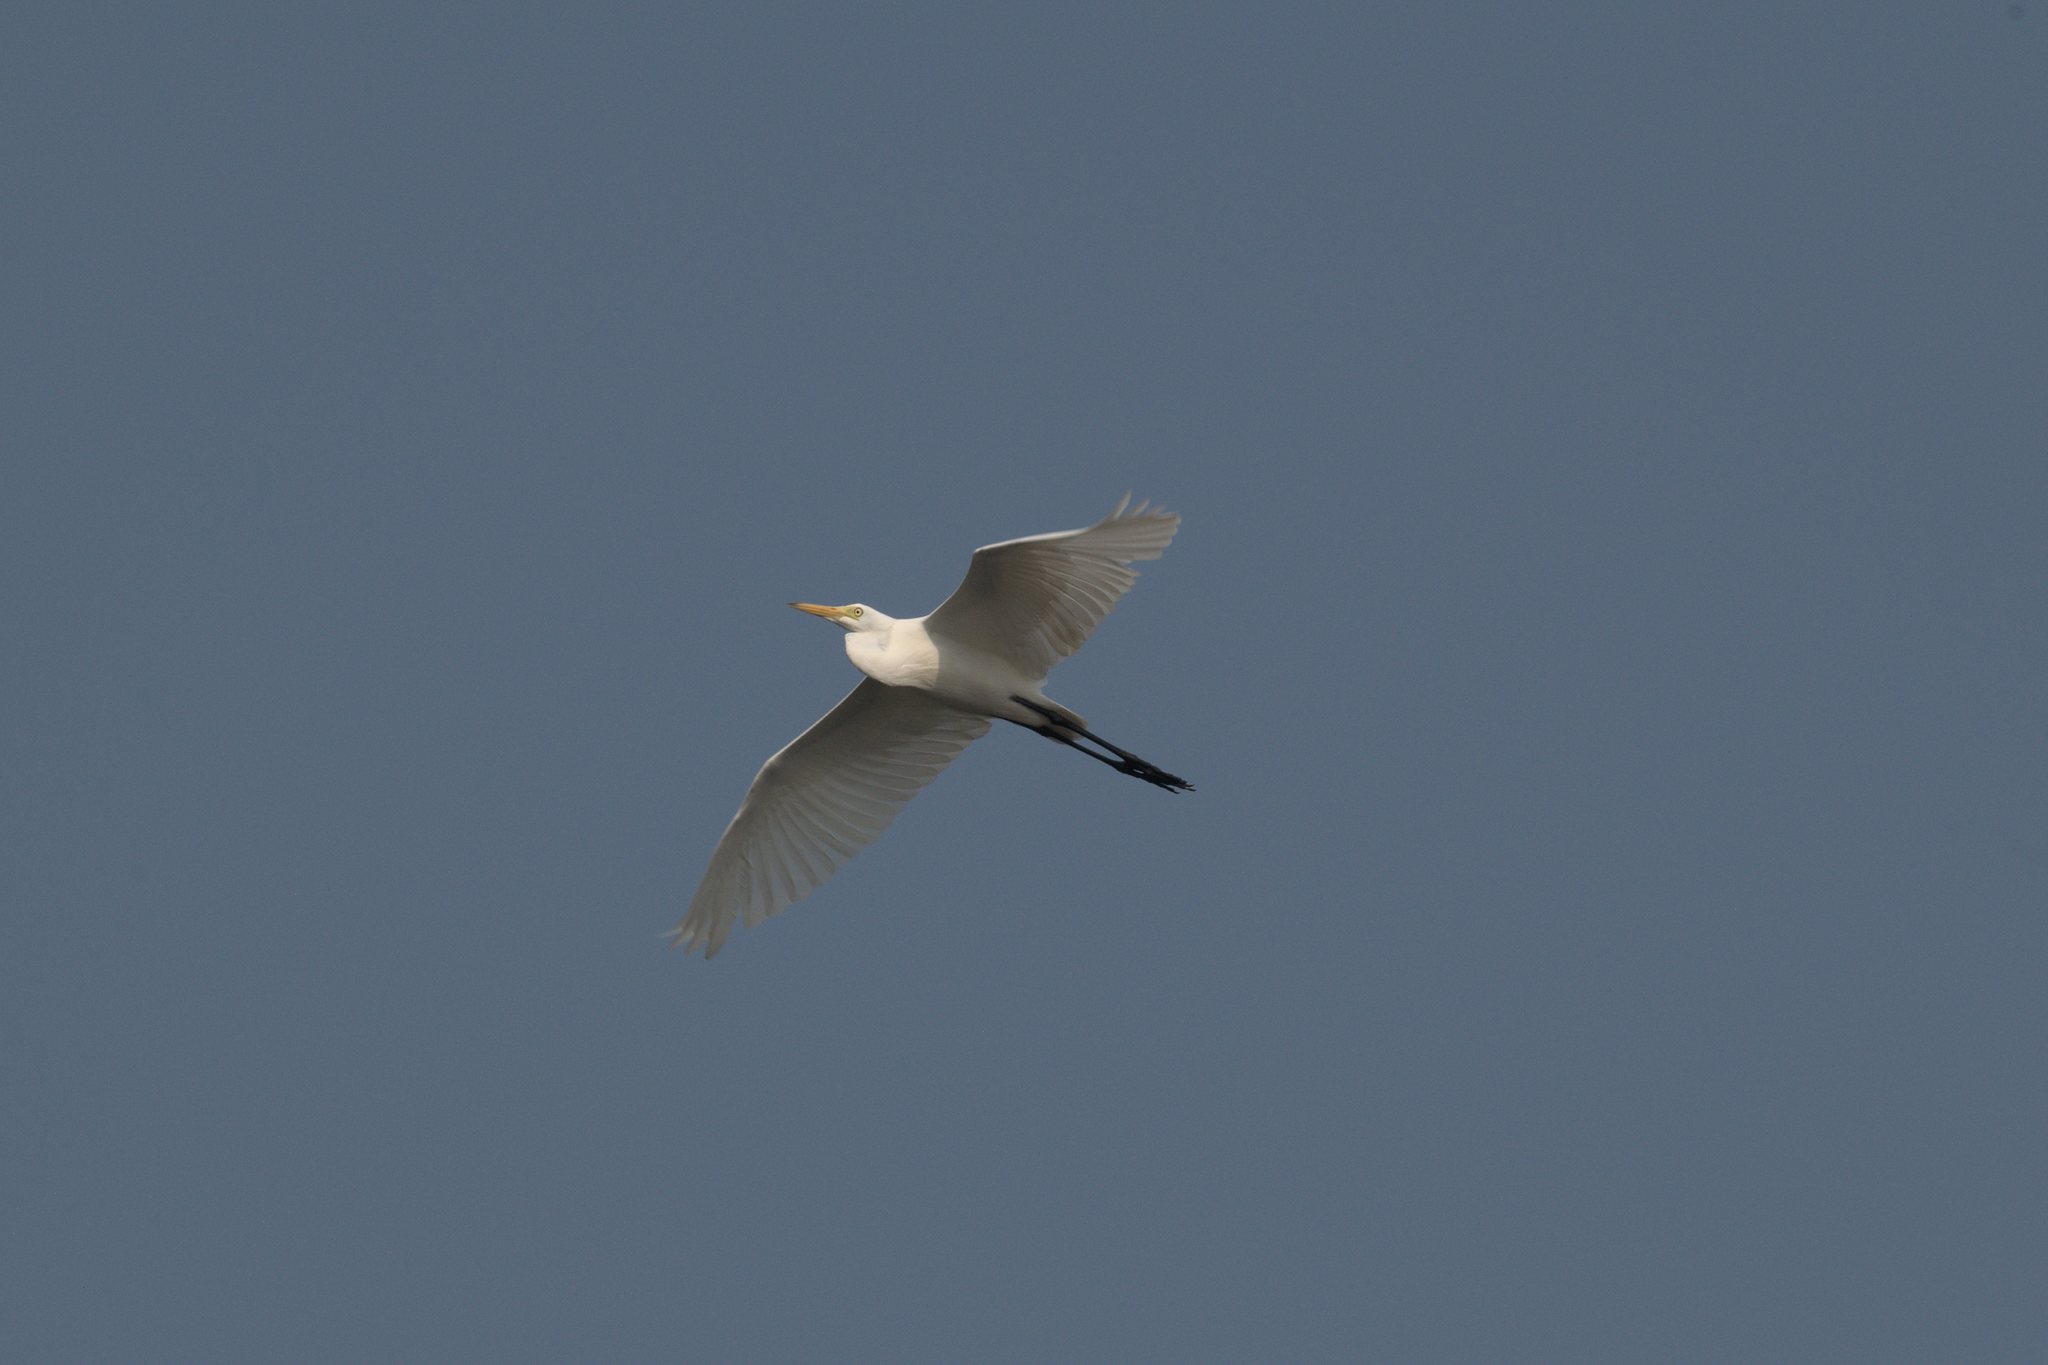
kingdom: Animalia
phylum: Chordata
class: Aves
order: Pelecaniformes
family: Ardeidae
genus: Egretta
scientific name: Egretta intermedia
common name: Intermediate egret
